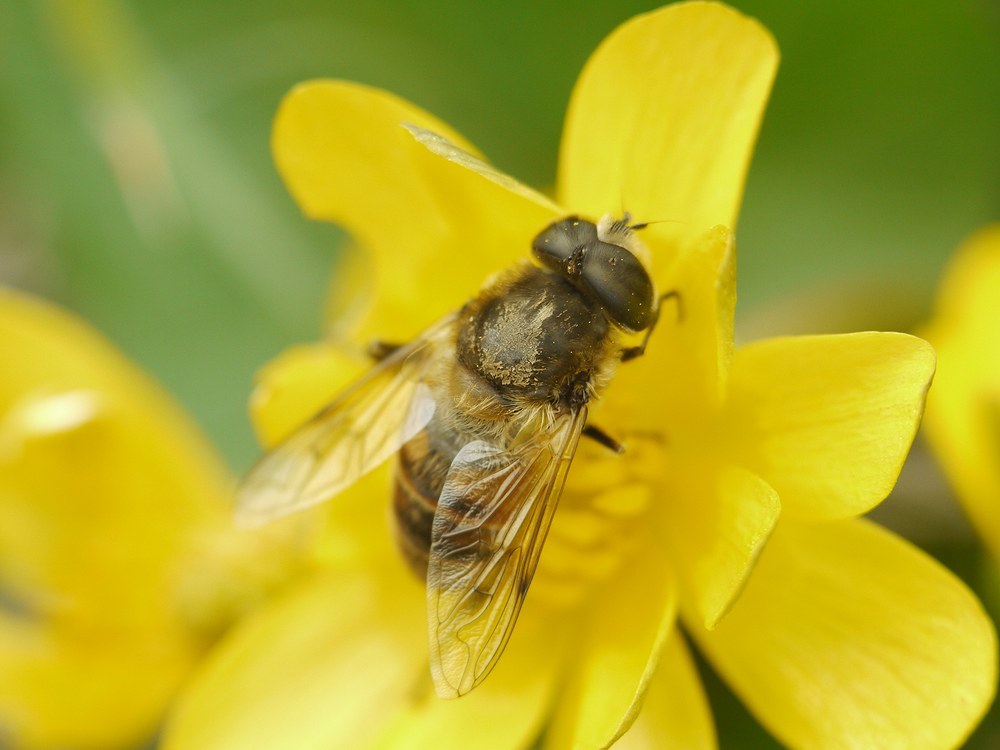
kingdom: Animalia
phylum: Arthropoda
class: Insecta
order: Diptera
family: Syrphidae
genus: Eristalis
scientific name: Eristalis tenax
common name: Drone fly
